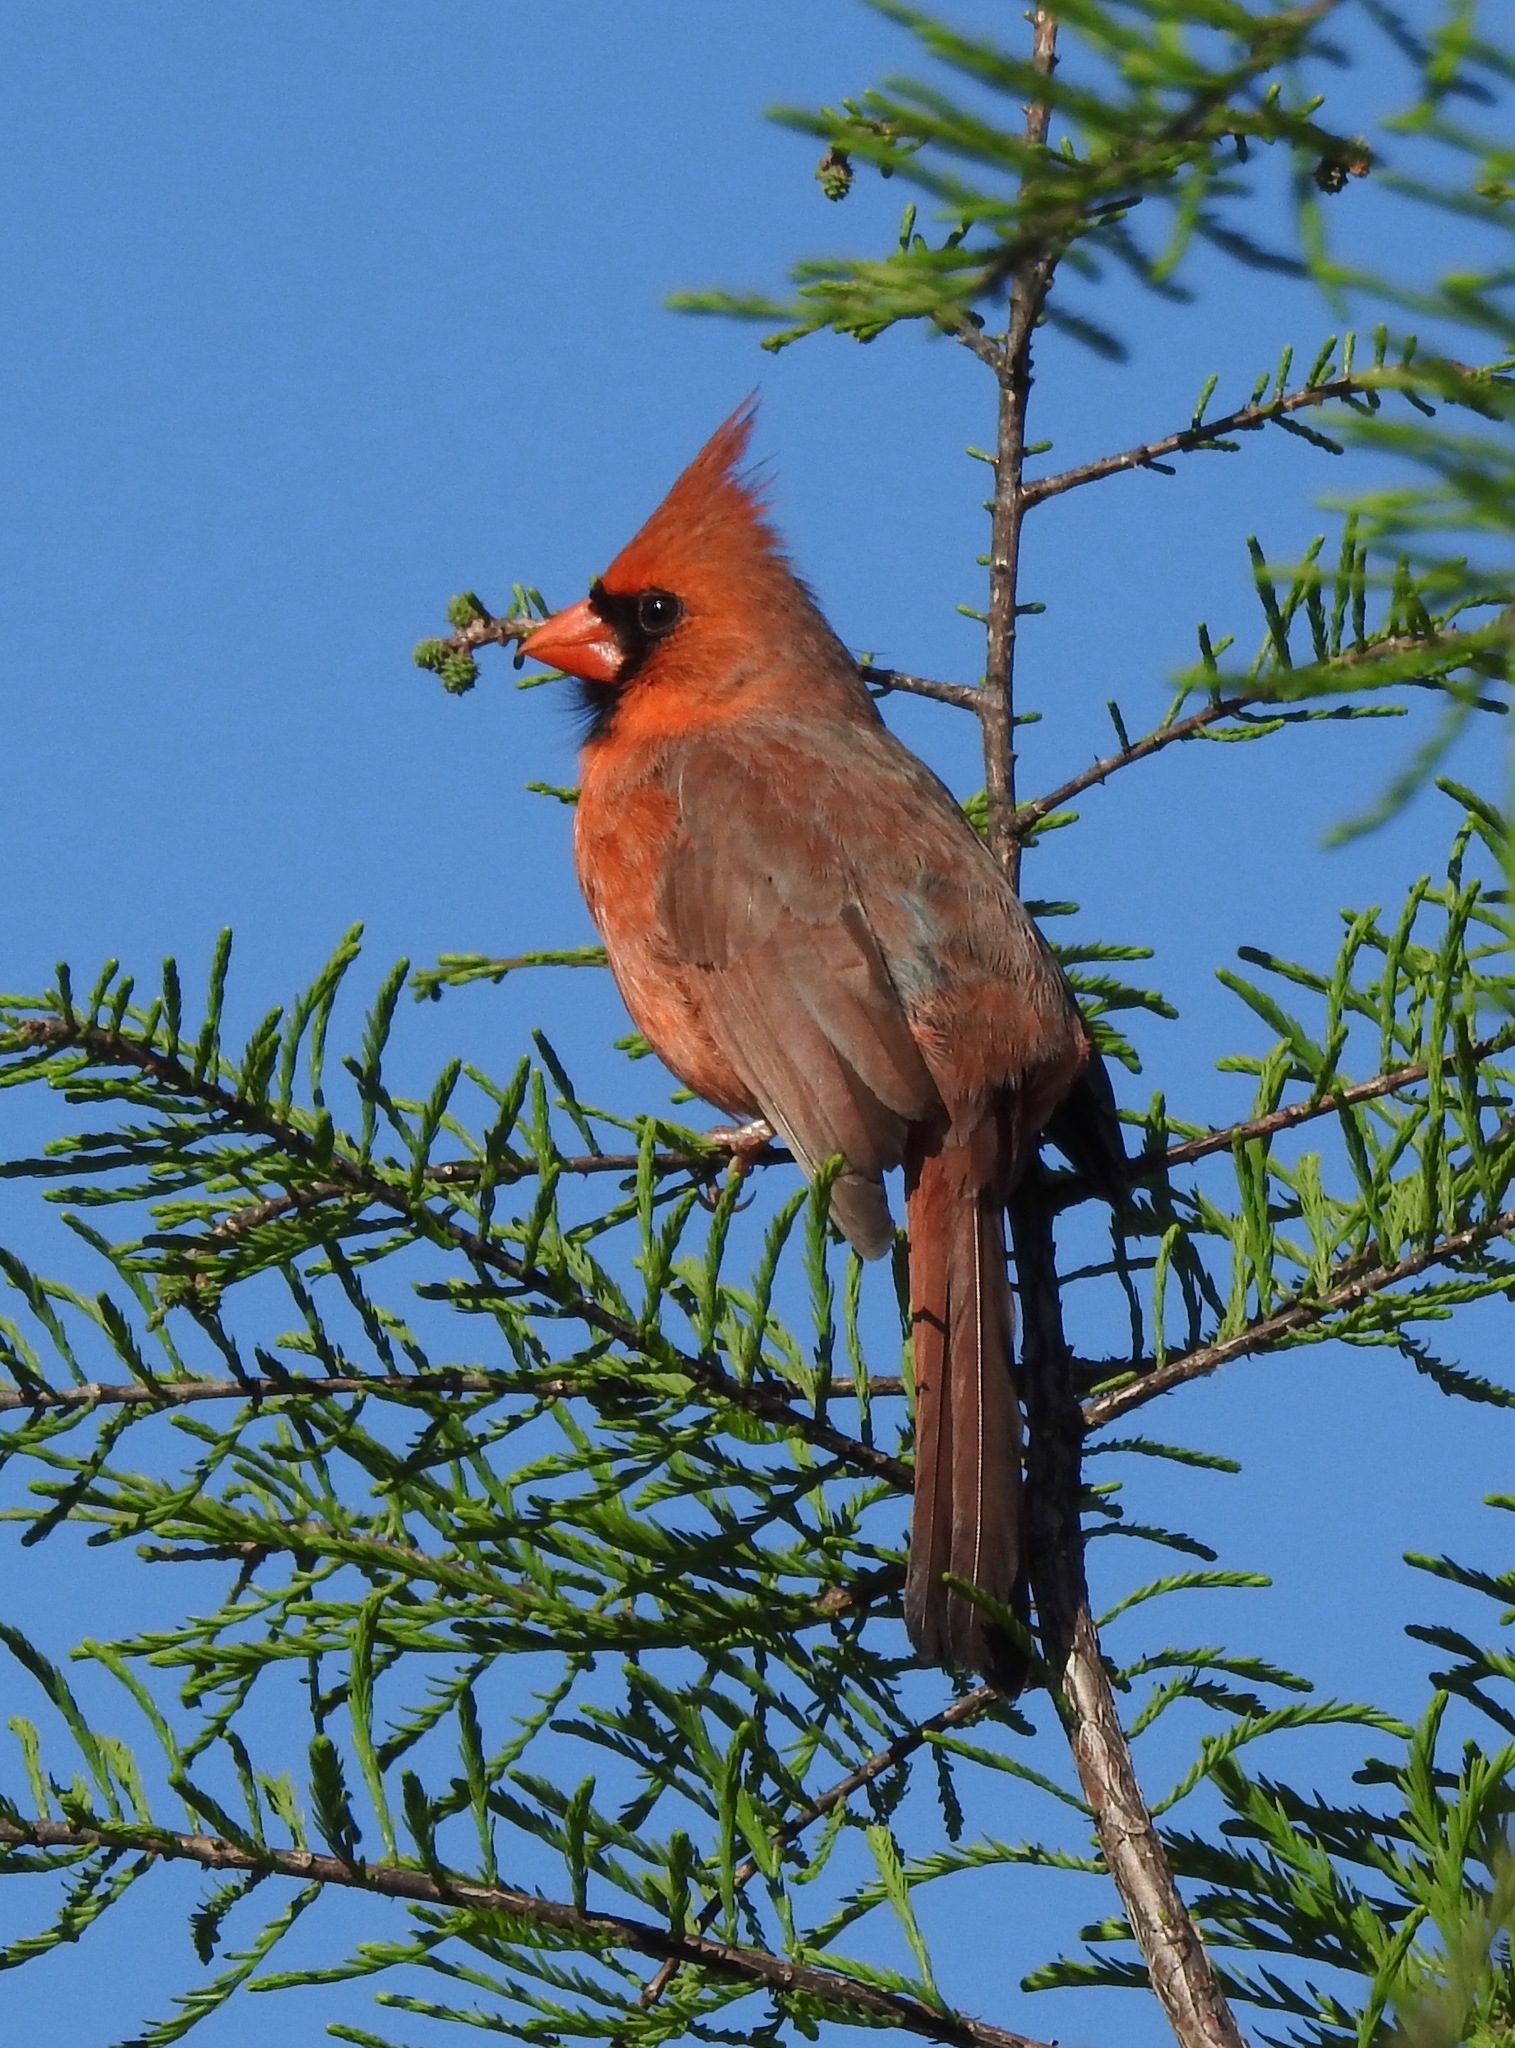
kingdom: Animalia
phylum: Chordata
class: Aves
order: Passeriformes
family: Cardinalidae
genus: Cardinalis
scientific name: Cardinalis cardinalis
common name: Northern cardinal
